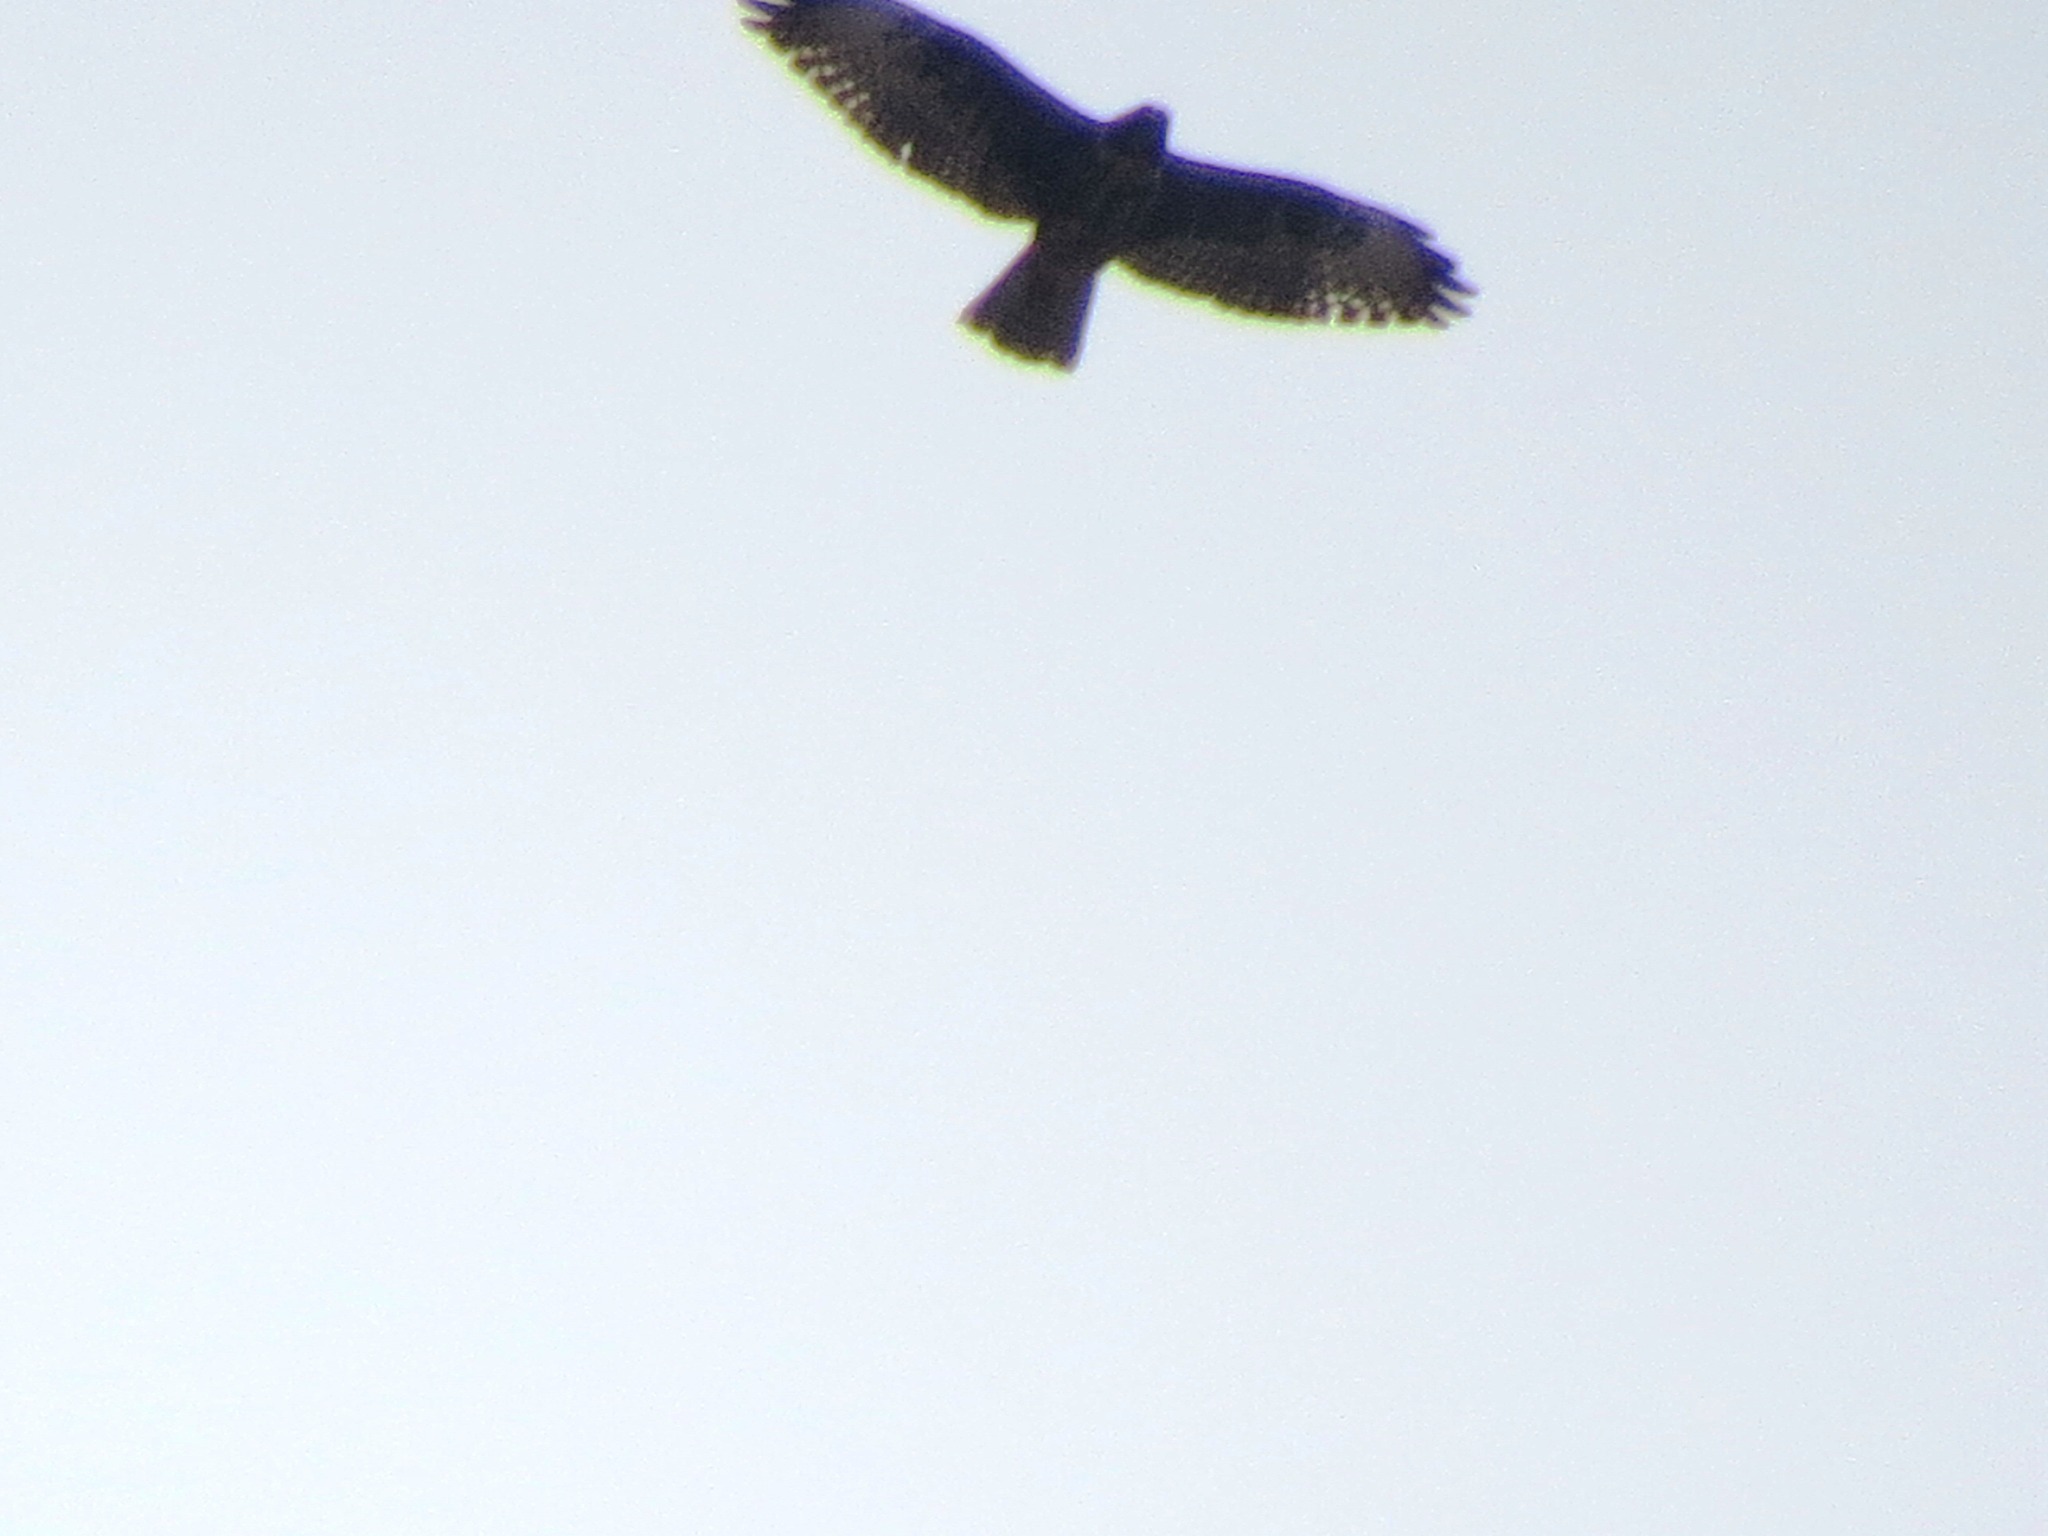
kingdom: Animalia
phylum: Chordata
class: Aves
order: Accipitriformes
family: Accipitridae
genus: Buteo
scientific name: Buteo jamaicensis
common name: Red-tailed hawk
